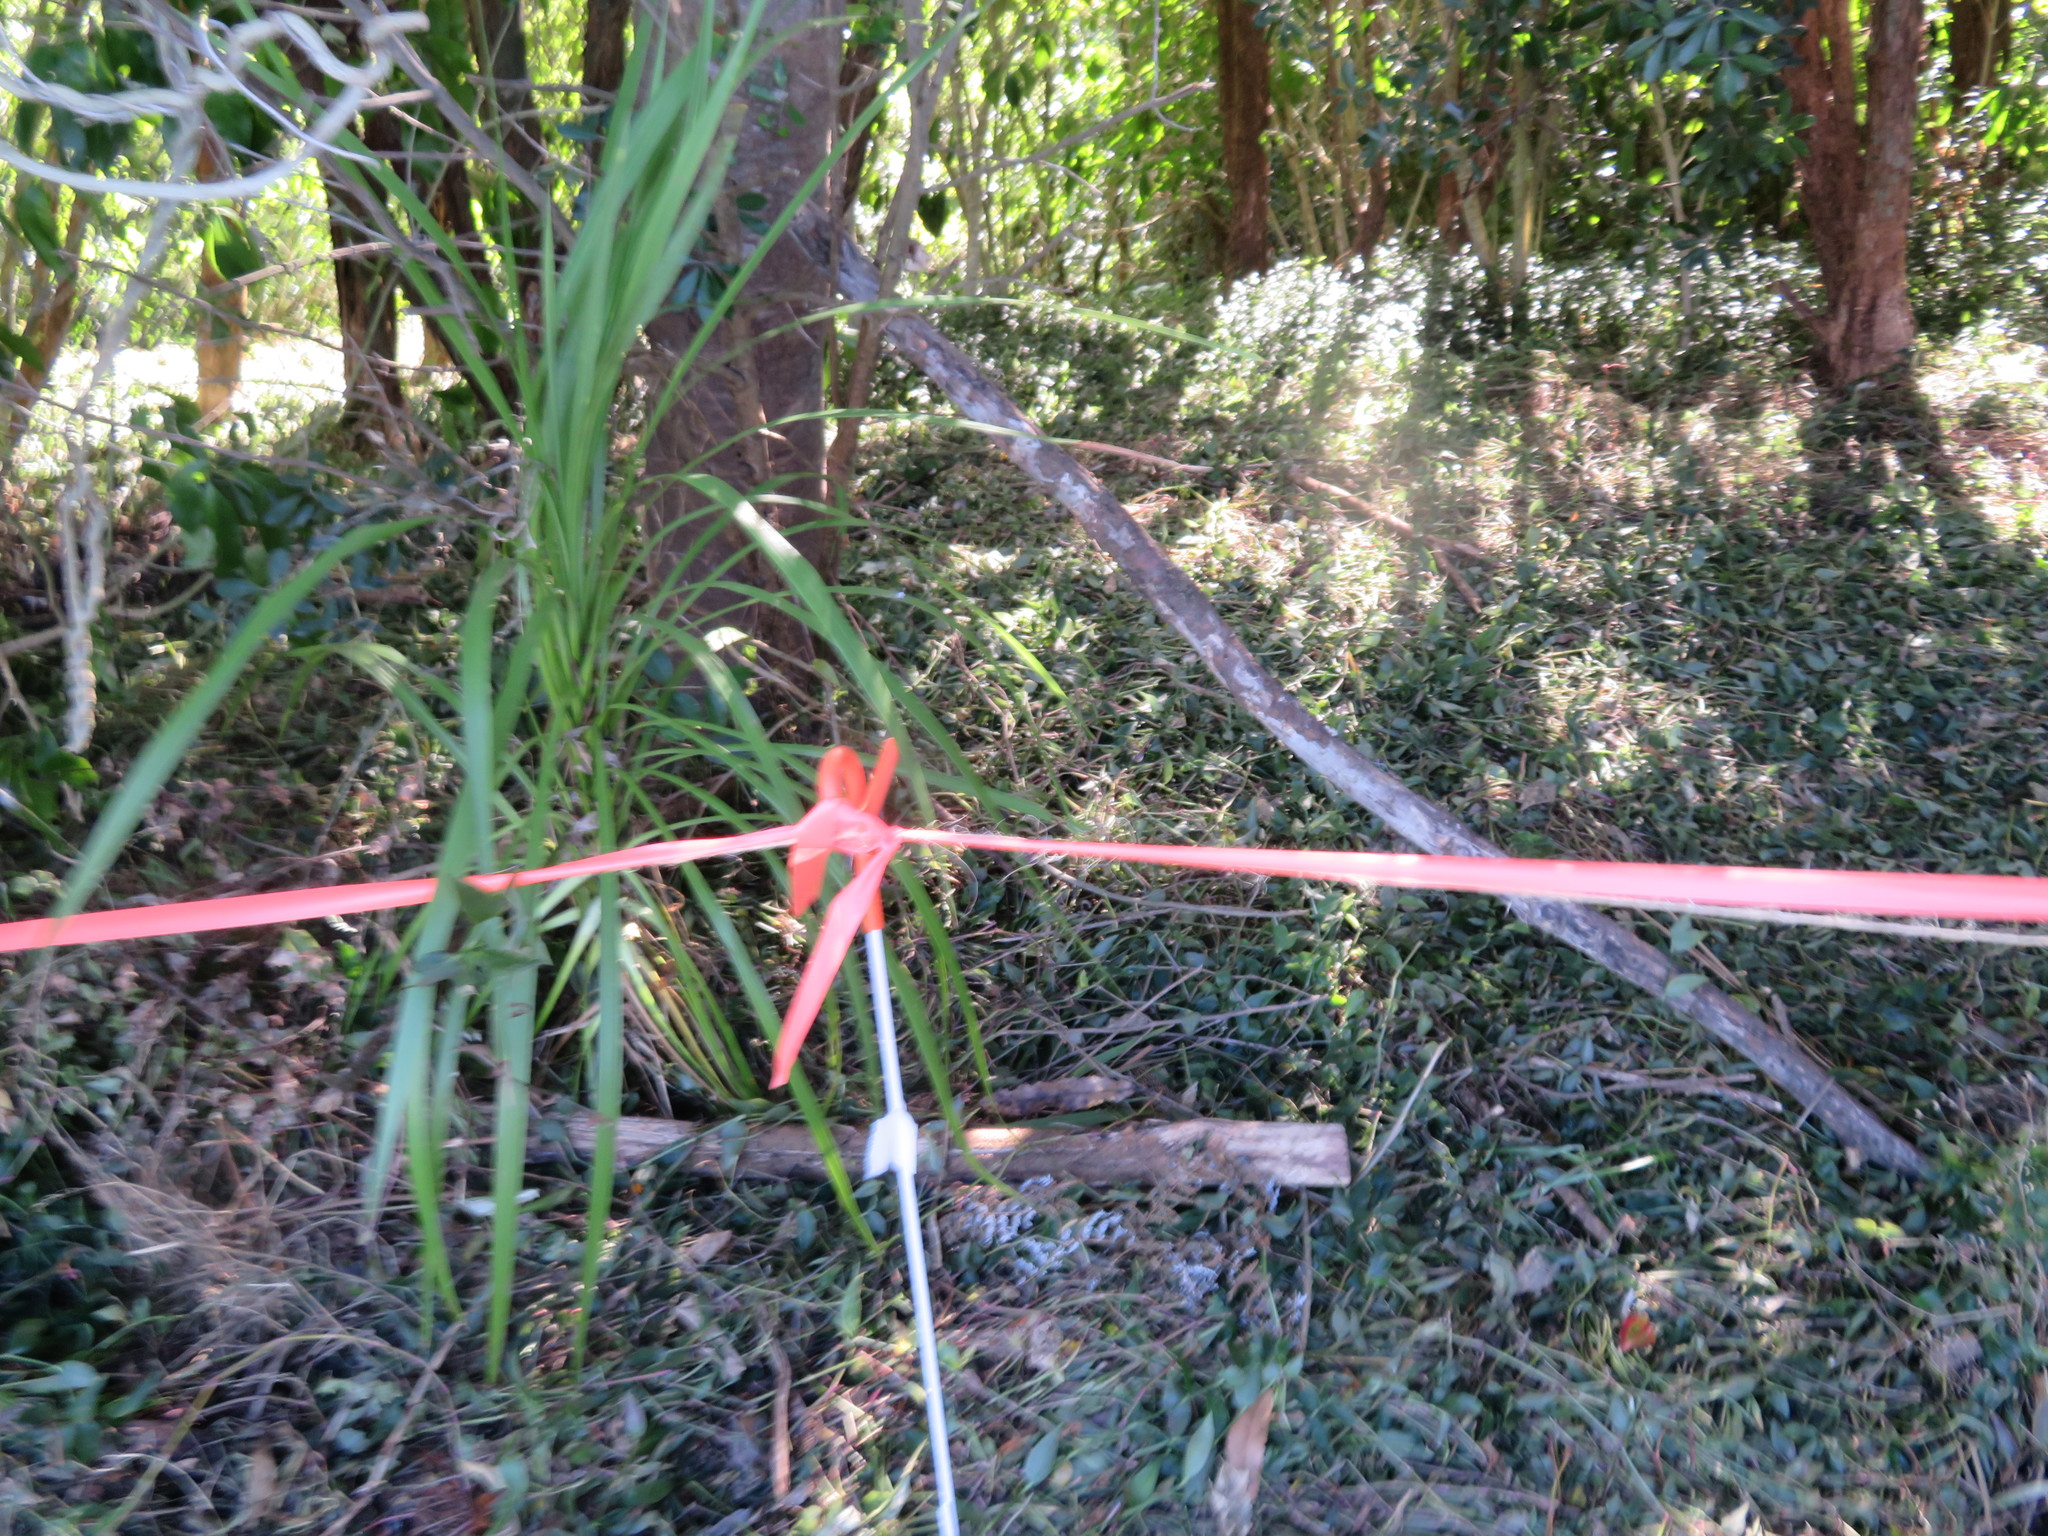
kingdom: Plantae
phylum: Tracheophyta
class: Liliopsida
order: Commelinales
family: Commelinaceae
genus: Tradescantia
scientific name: Tradescantia fluminensis
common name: Wandering-jew
